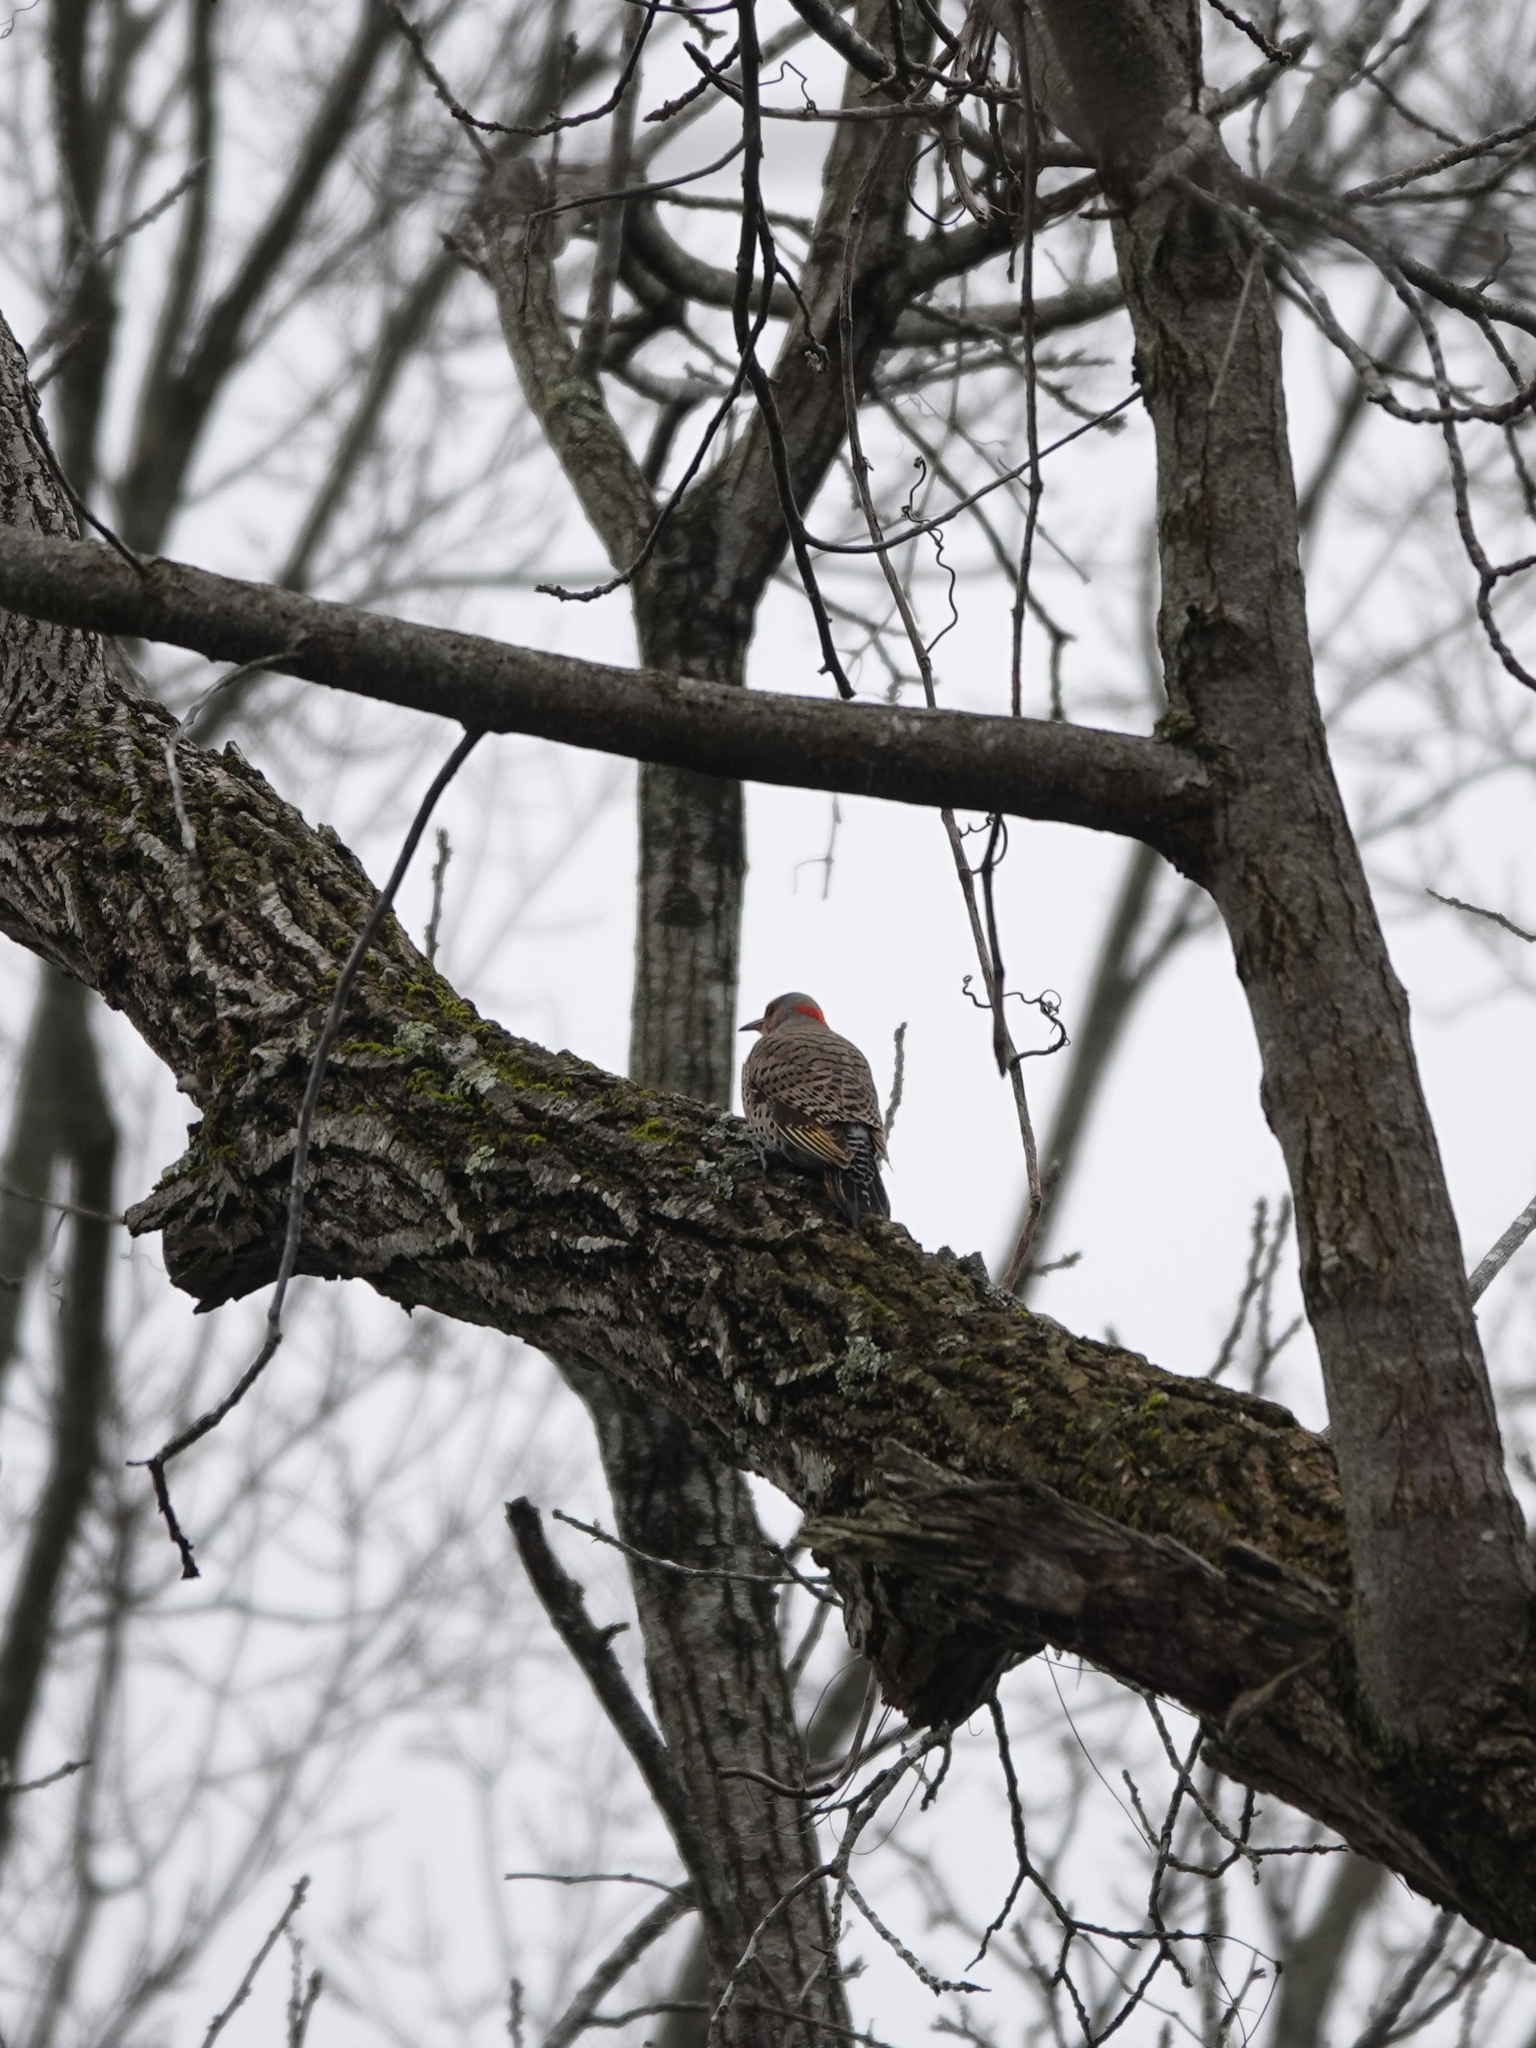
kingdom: Animalia
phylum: Chordata
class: Aves
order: Piciformes
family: Picidae
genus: Colaptes
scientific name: Colaptes auratus
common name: Northern flicker
